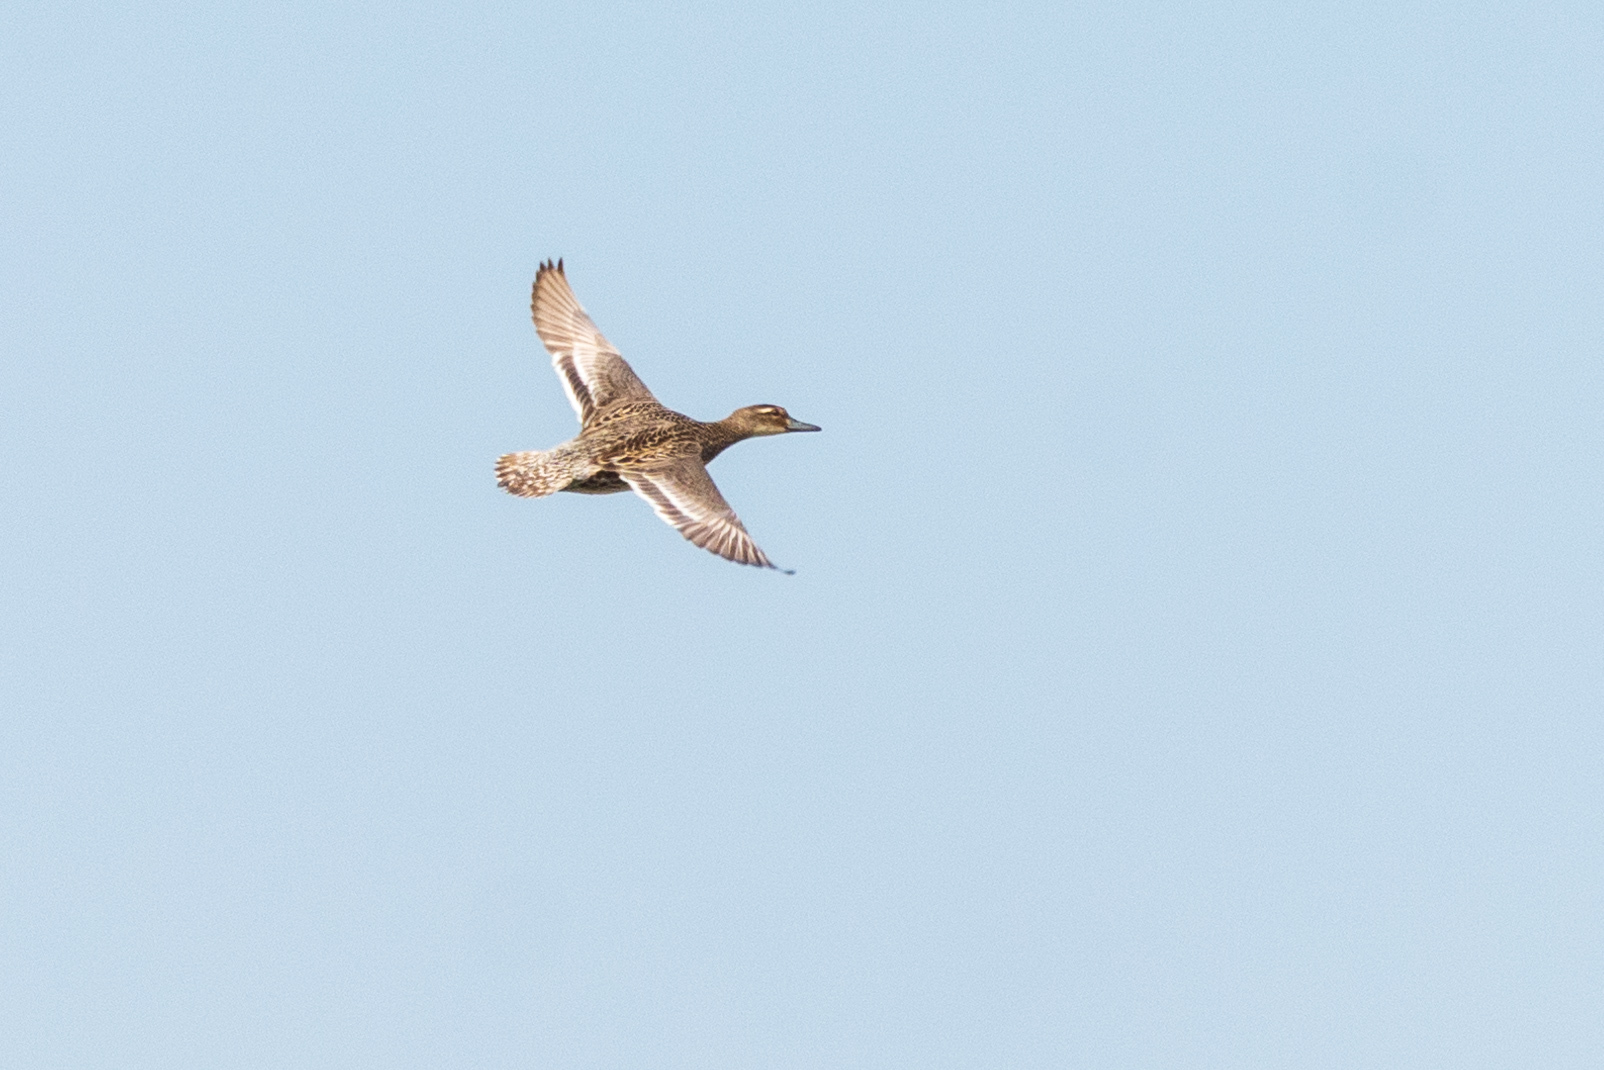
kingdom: Animalia
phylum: Chordata
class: Aves
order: Anseriformes
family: Anatidae
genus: Spatula
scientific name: Spatula querquedula
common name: Garganey
